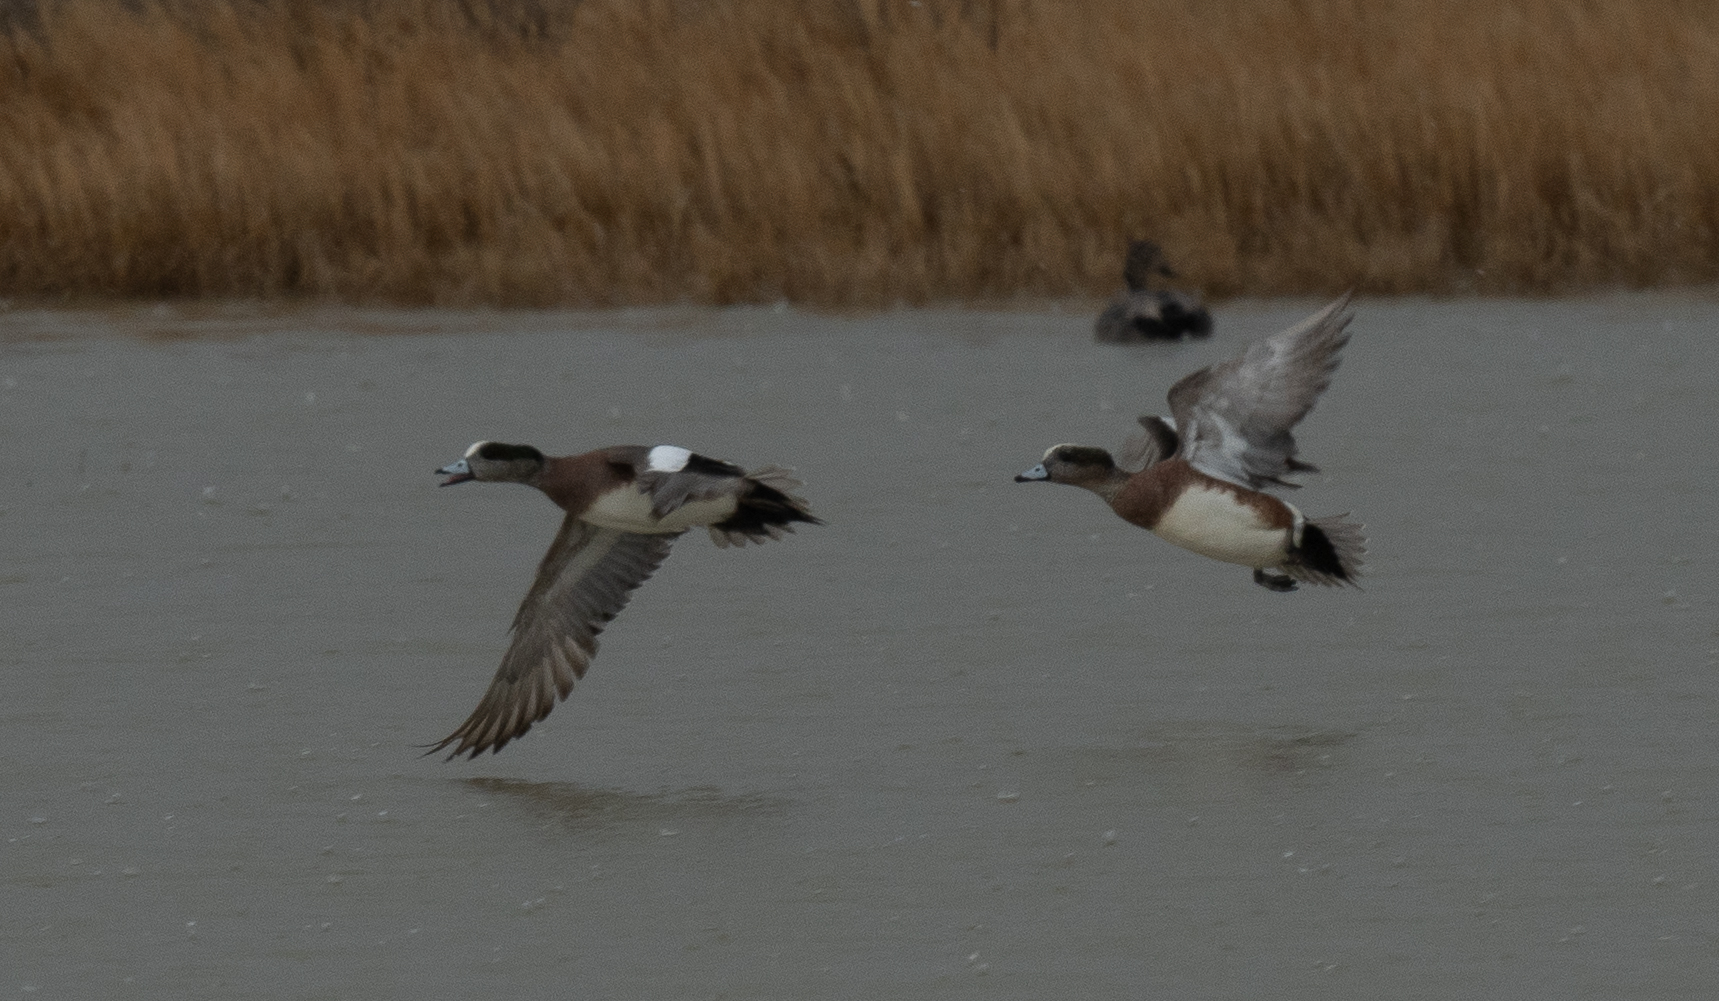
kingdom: Animalia
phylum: Chordata
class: Aves
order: Anseriformes
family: Anatidae
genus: Mareca
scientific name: Mareca americana
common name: American wigeon
